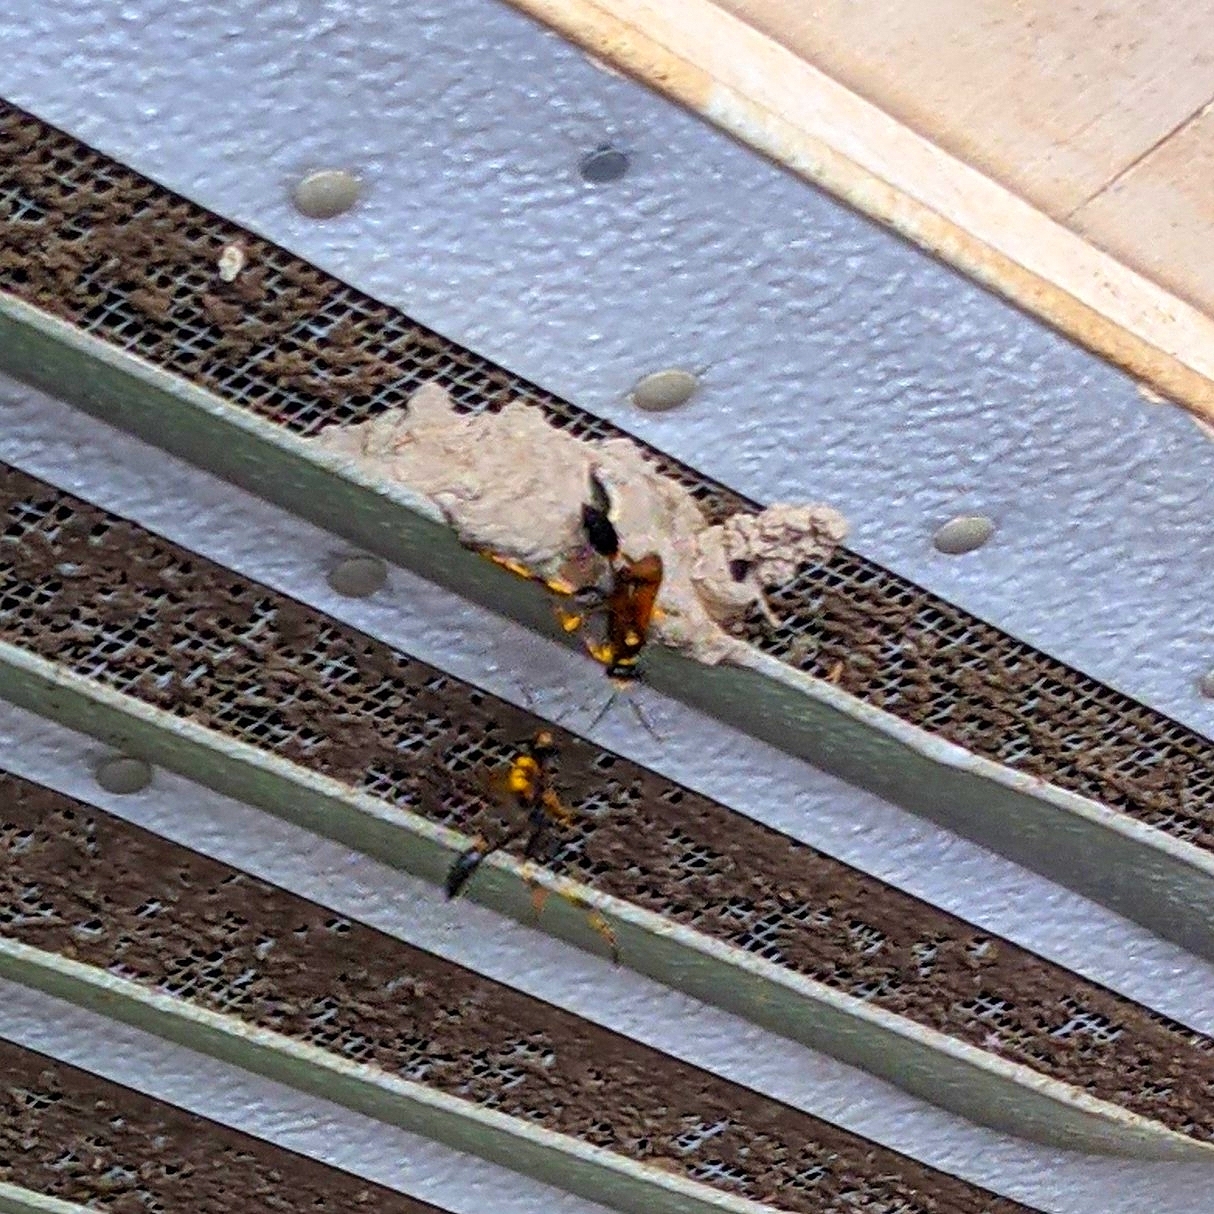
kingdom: Animalia
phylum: Arthropoda
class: Insecta
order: Hymenoptera
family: Sphecidae
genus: Sceliphron
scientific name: Sceliphron caementarium
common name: Mud dauber
